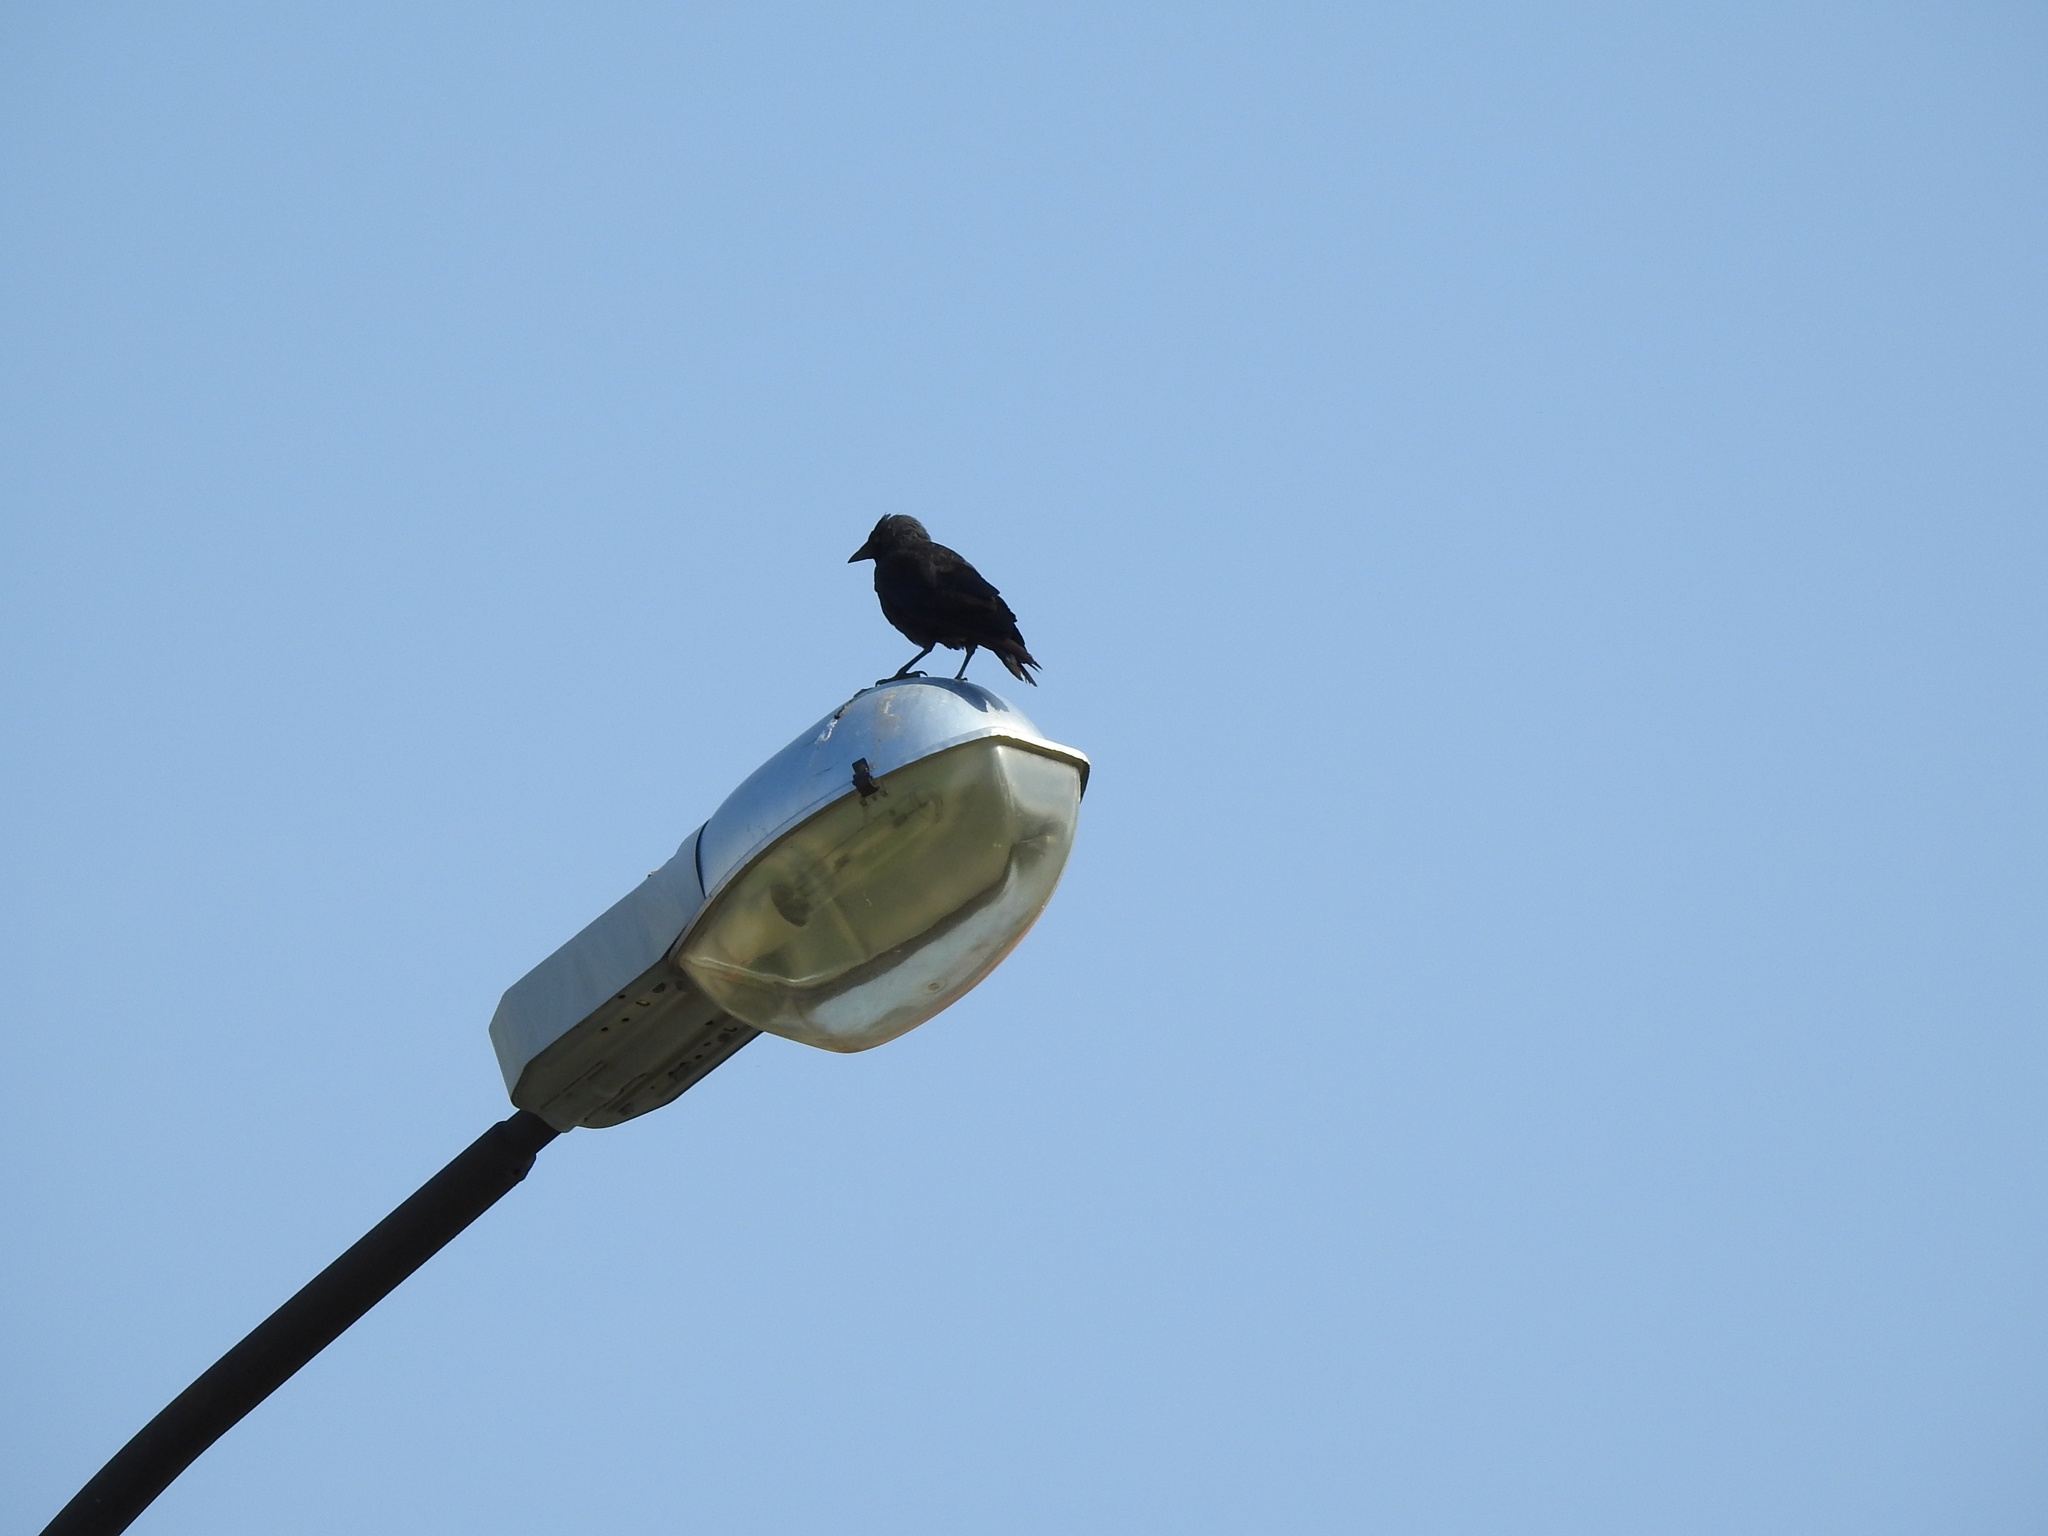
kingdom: Animalia
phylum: Chordata
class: Aves
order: Passeriformes
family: Corvidae
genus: Coloeus
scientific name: Coloeus monedula
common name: Western jackdaw
